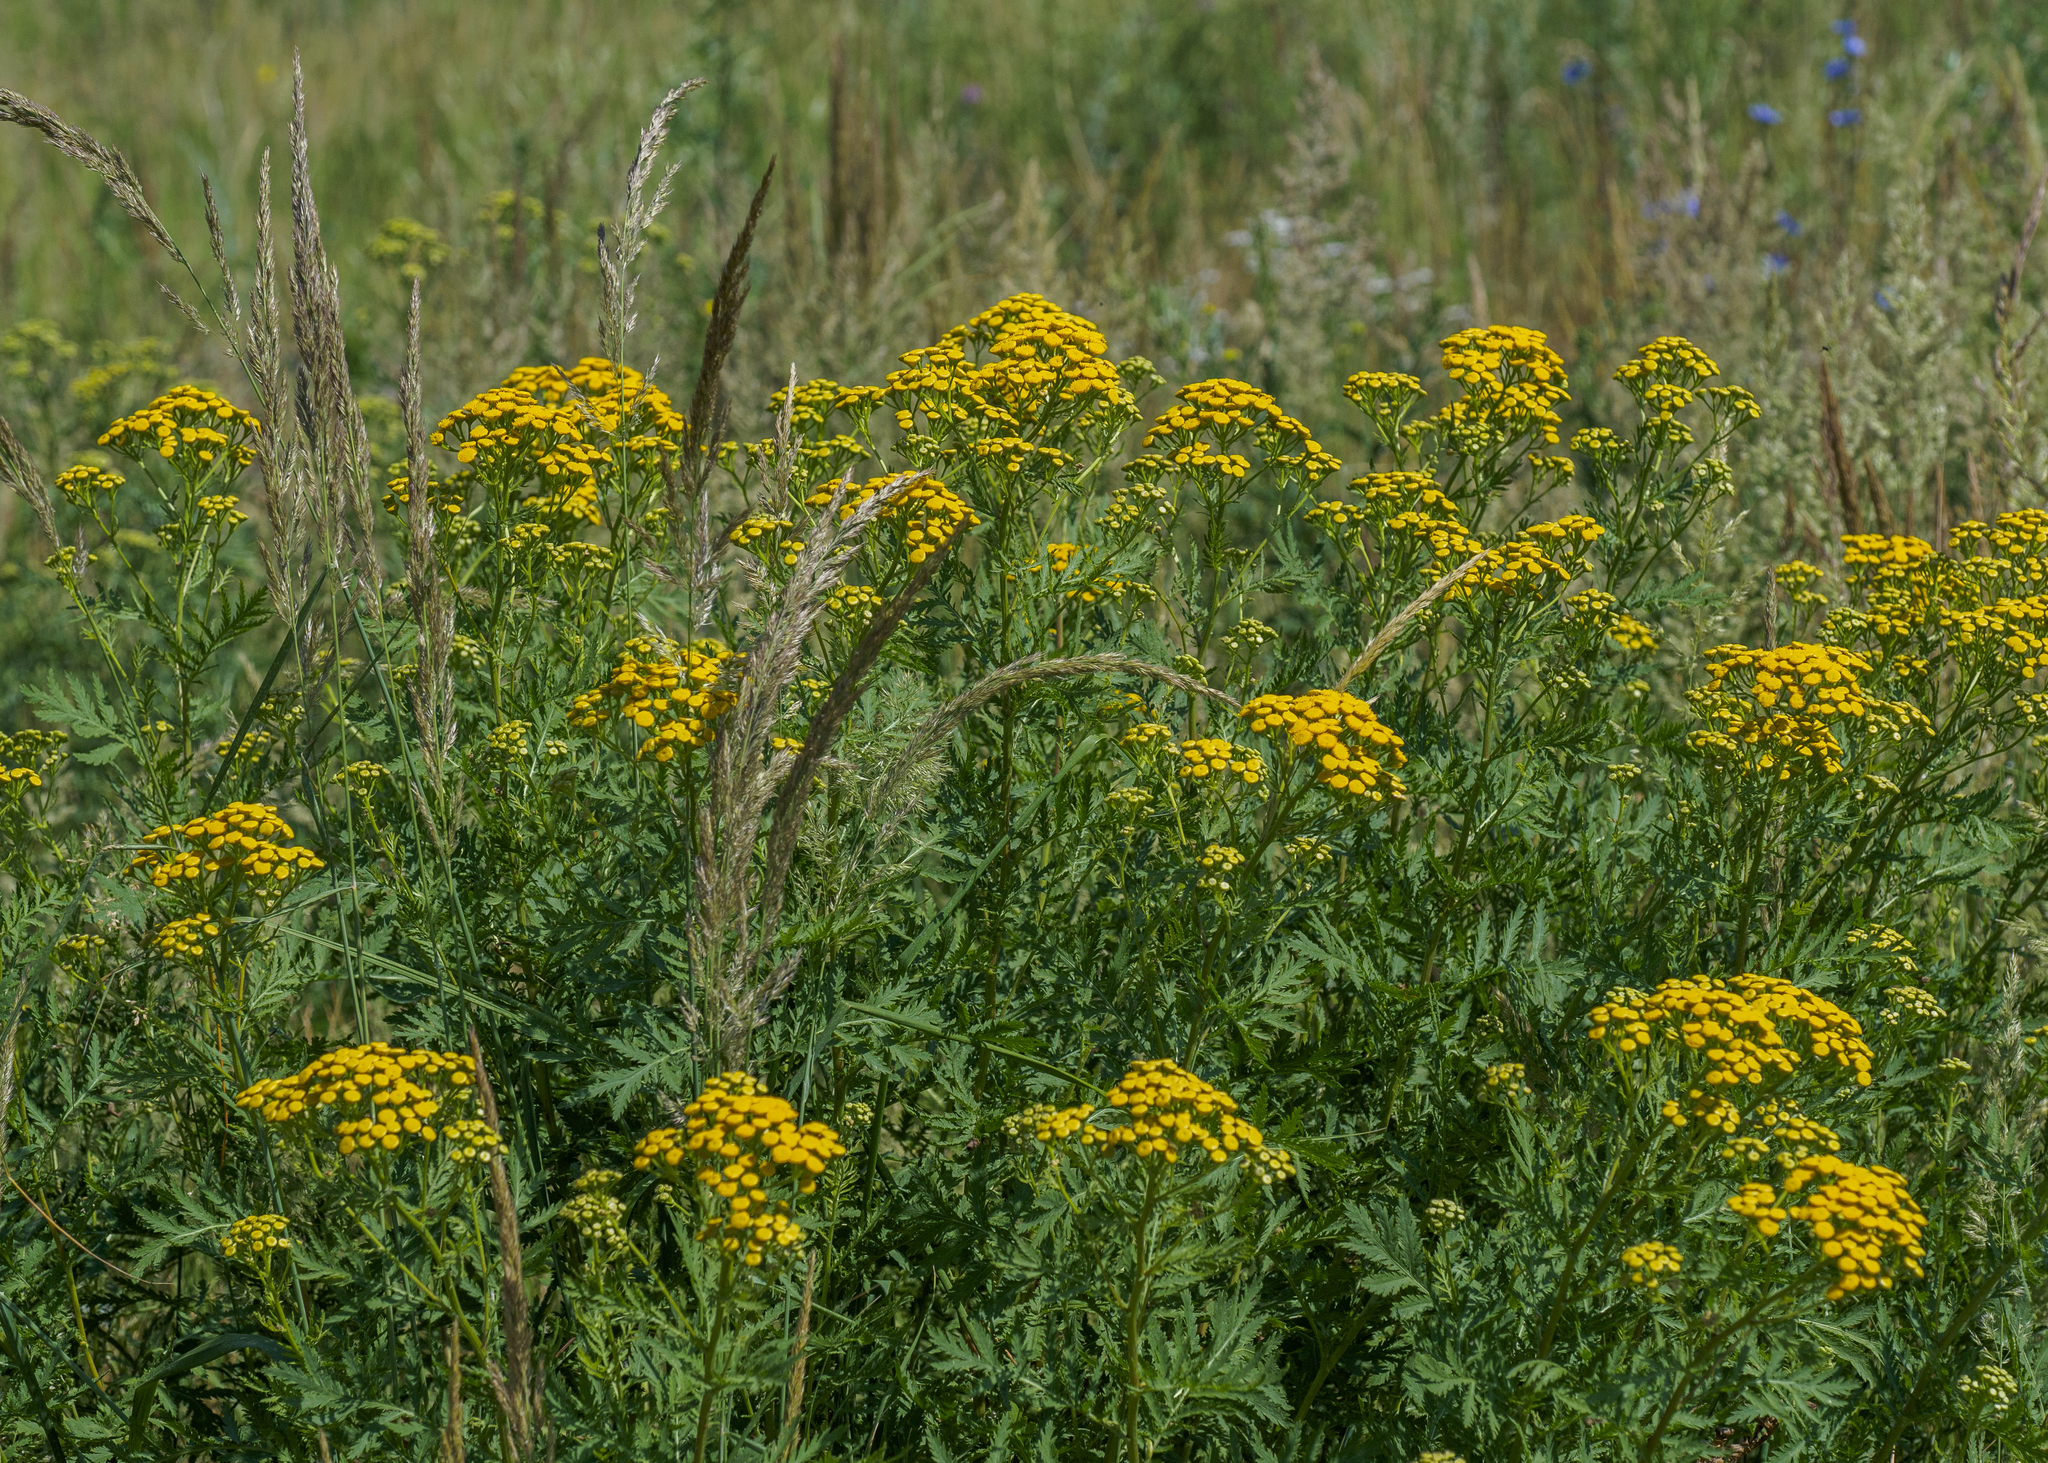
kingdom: Plantae
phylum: Tracheophyta
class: Magnoliopsida
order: Asterales
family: Asteraceae
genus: Tanacetum
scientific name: Tanacetum vulgare
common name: Common tansy
